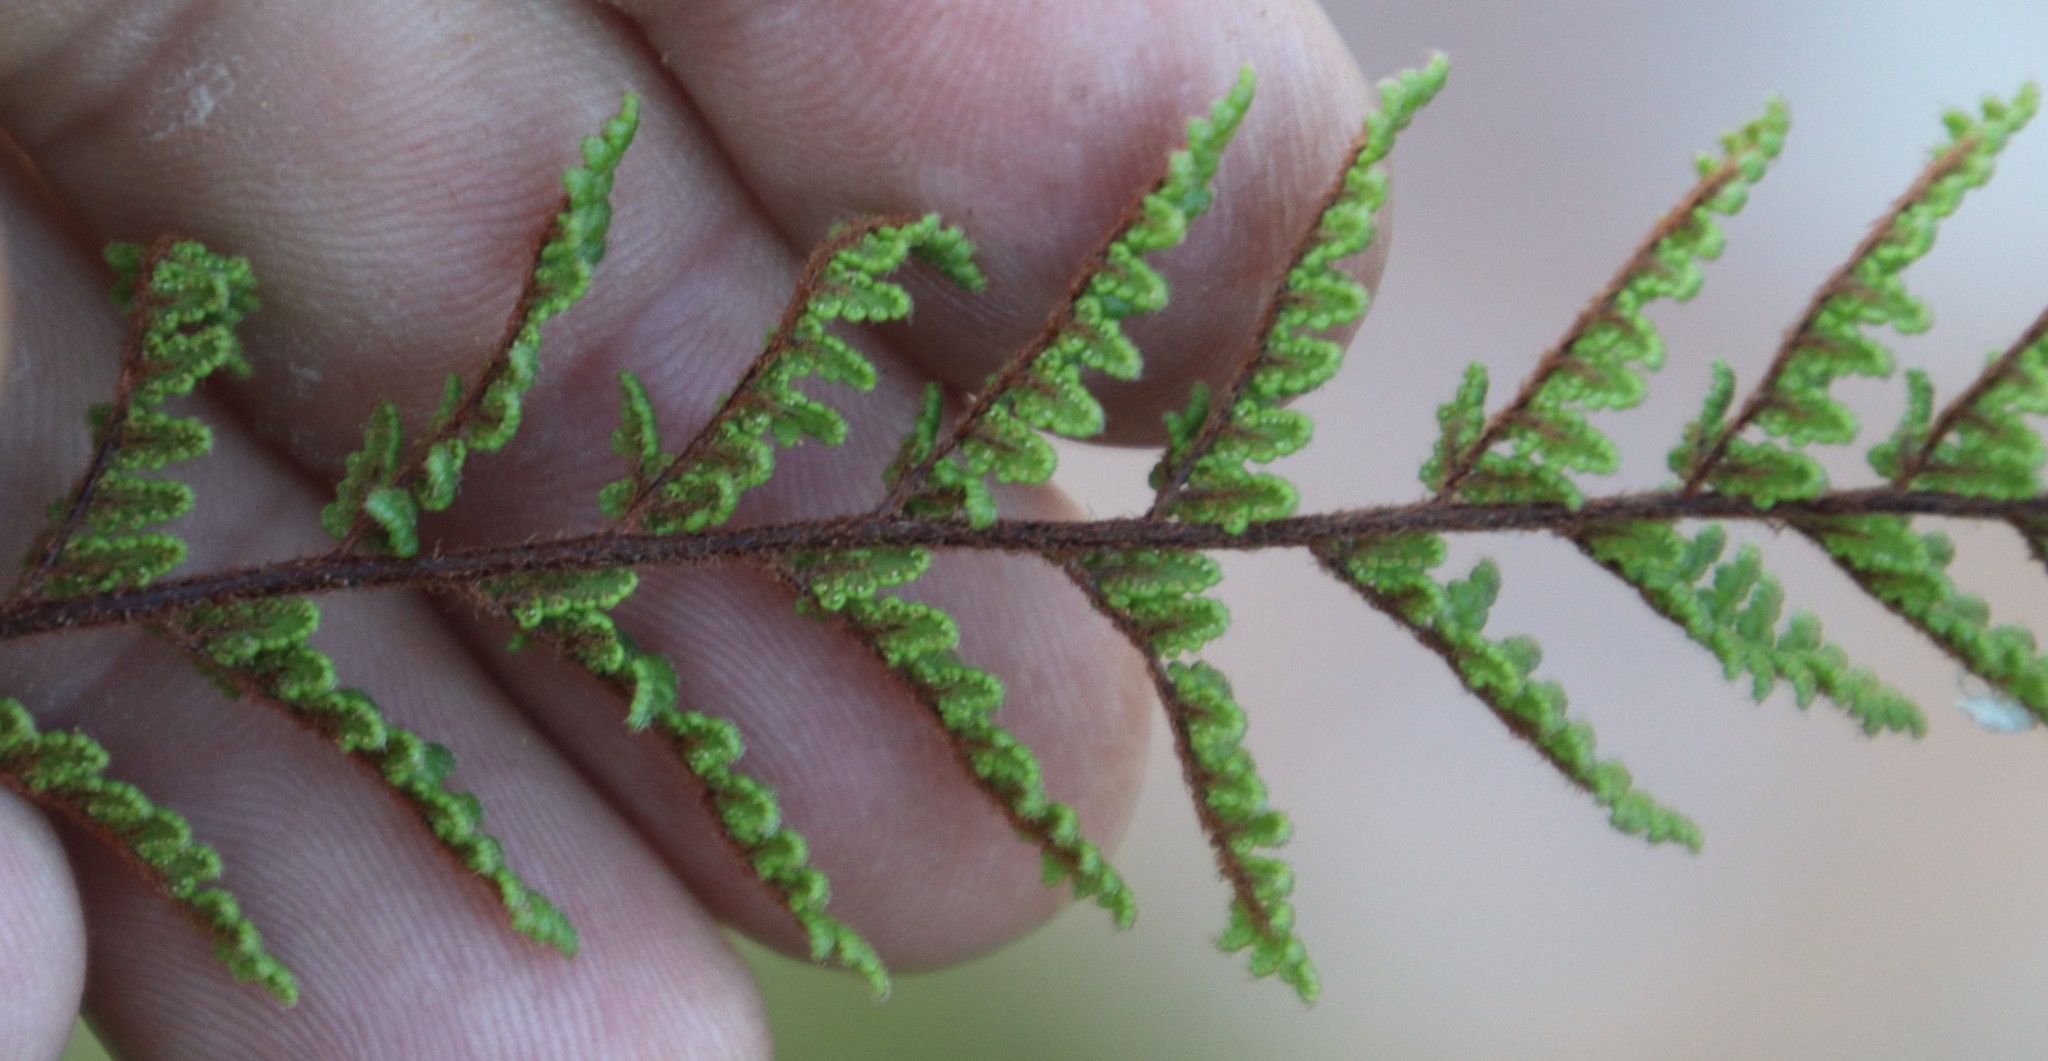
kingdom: Plantae
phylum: Tracheophyta
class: Polypodiopsida
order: Polypodiales
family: Pteridaceae
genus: Cheilanthes
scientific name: Cheilanthes contracta
